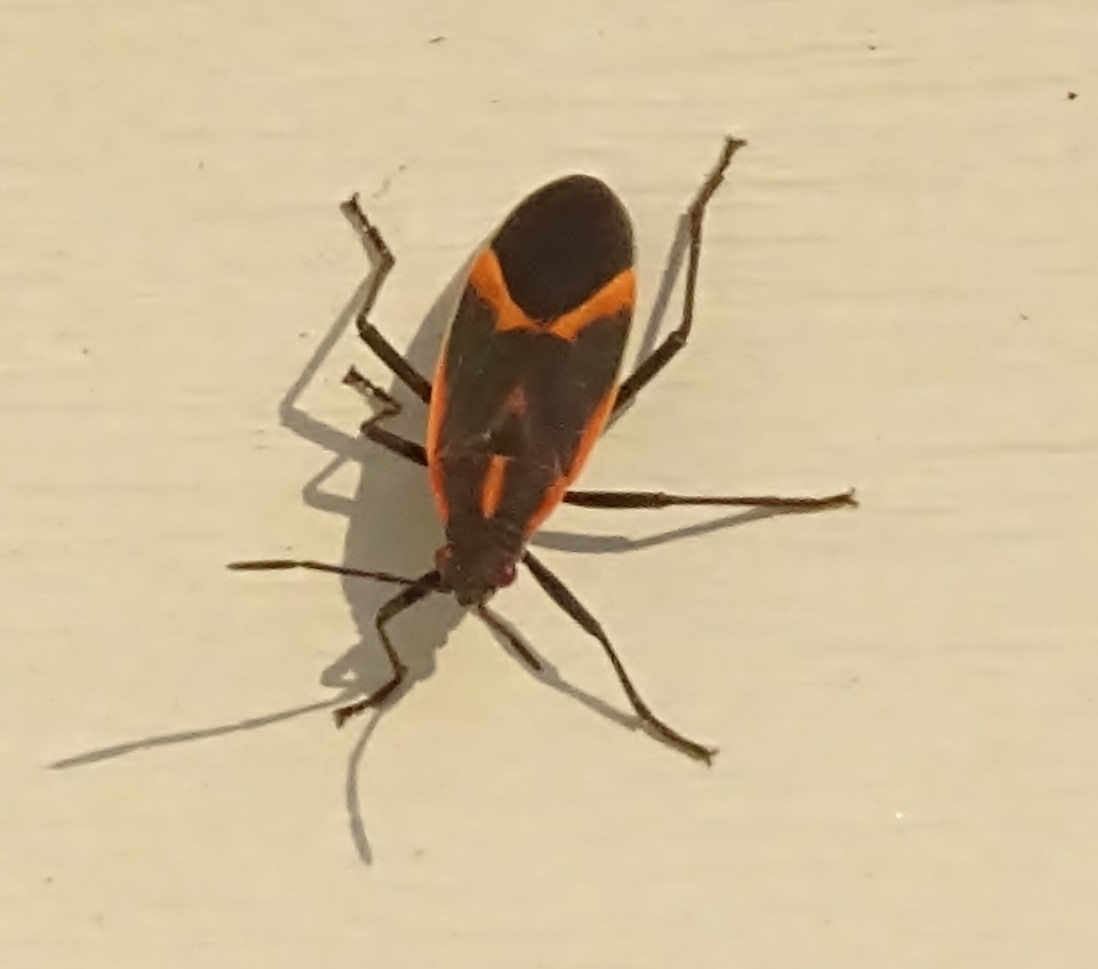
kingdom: Animalia
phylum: Arthropoda
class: Insecta
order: Hemiptera
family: Rhopalidae
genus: Boisea
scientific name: Boisea trivittata
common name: Boxelder bug
